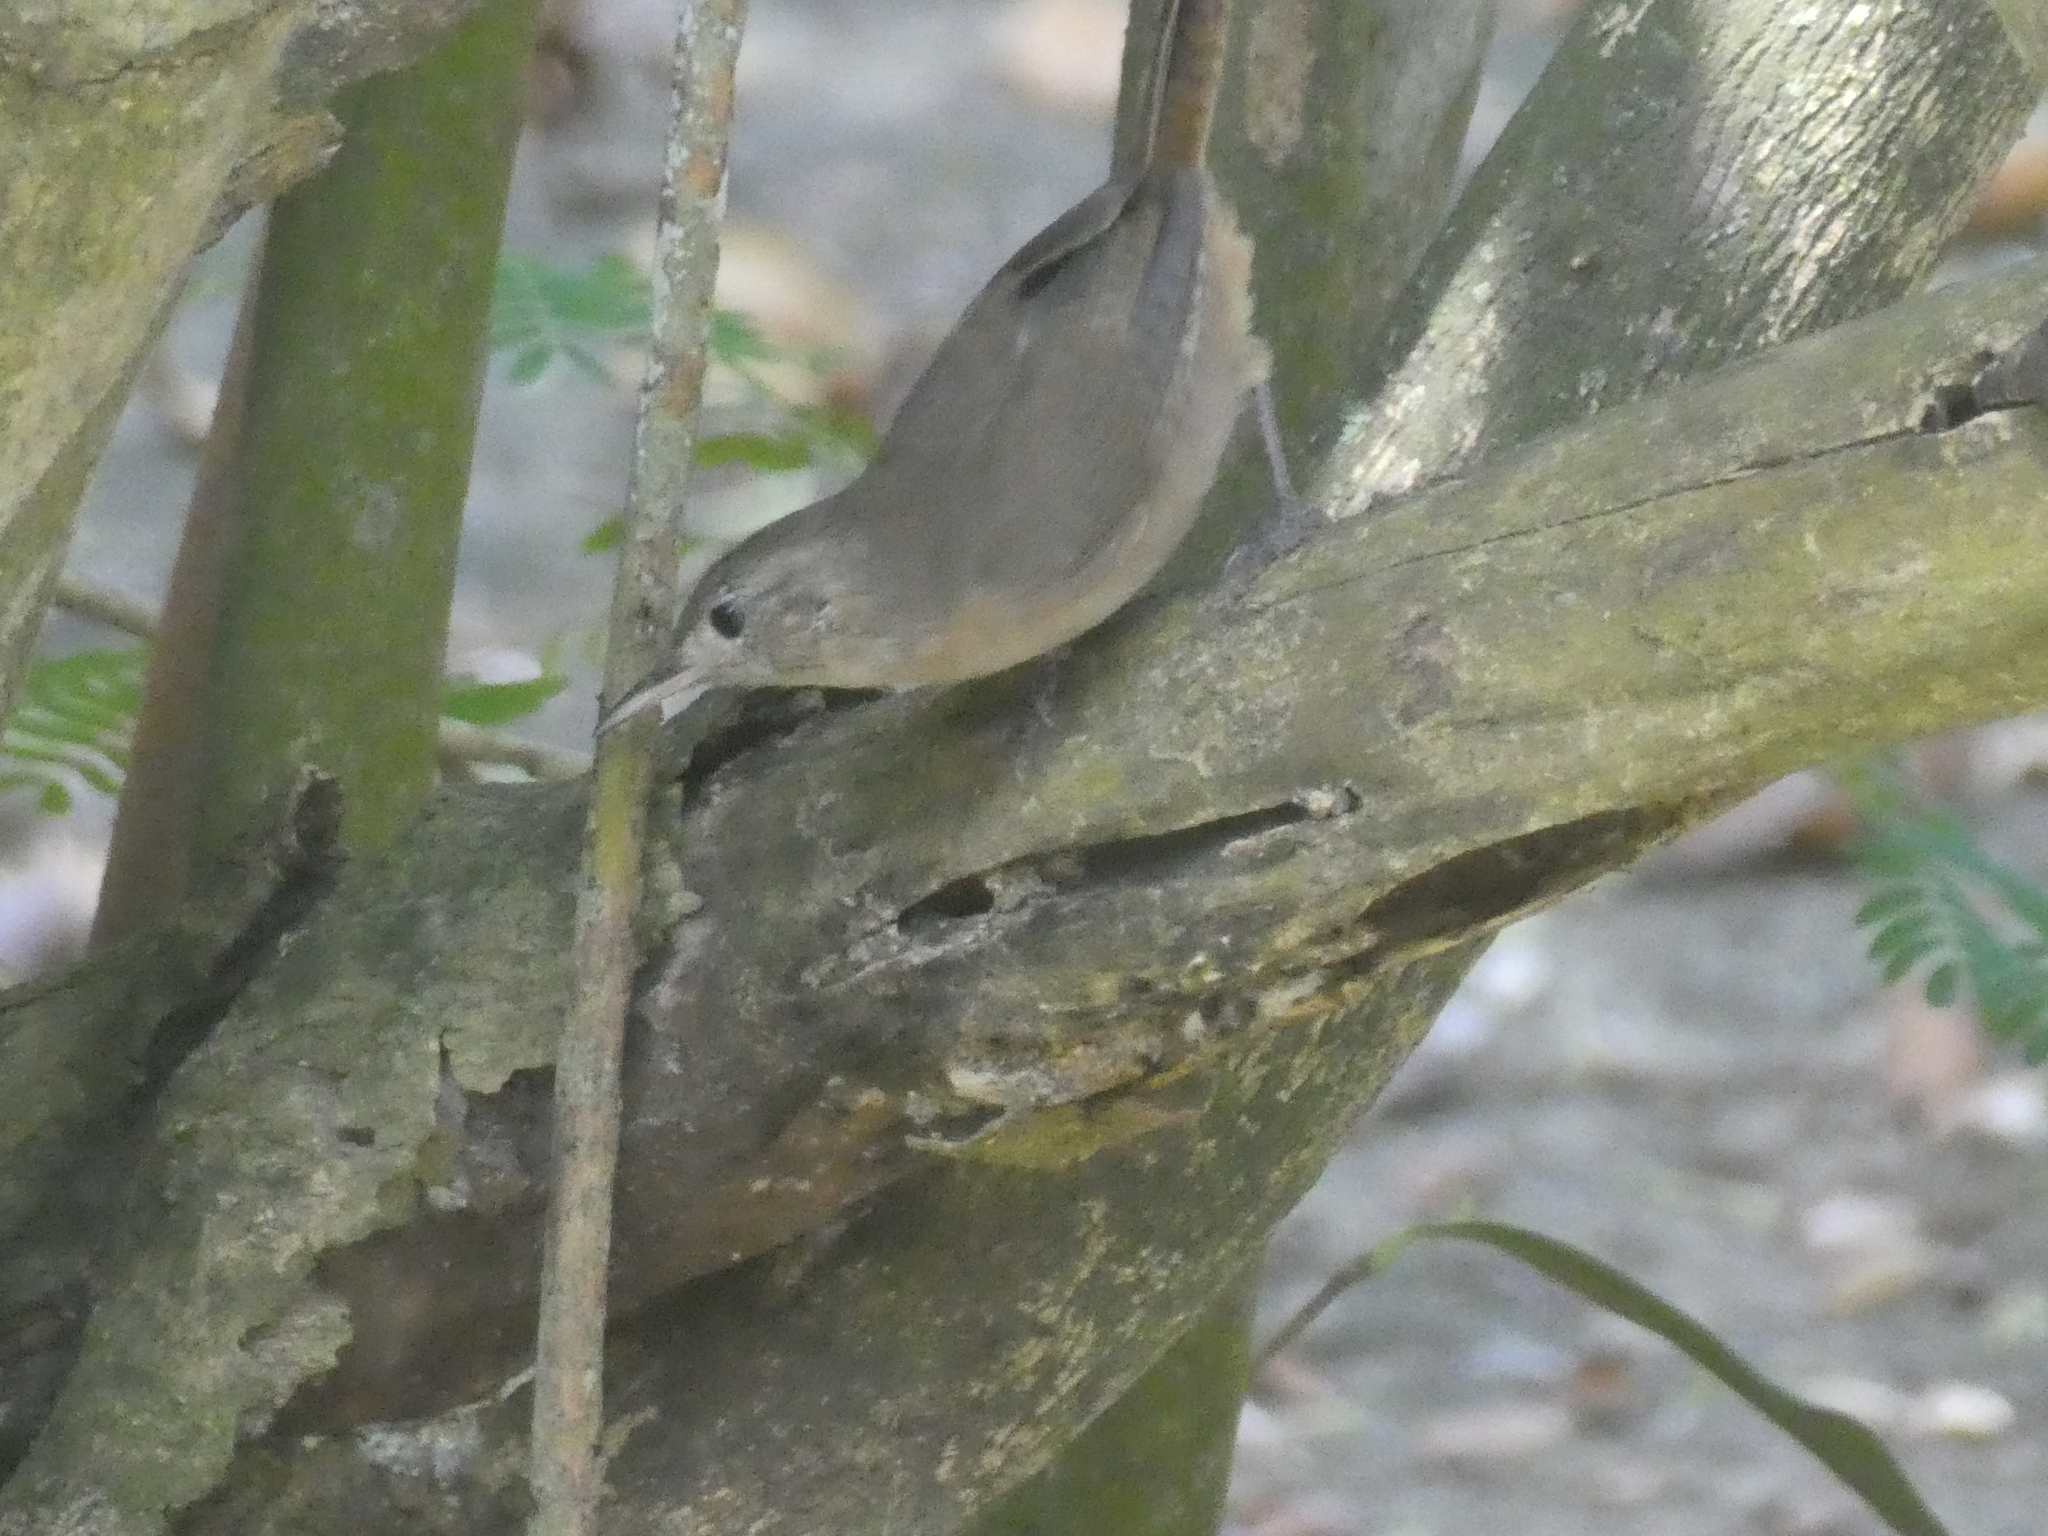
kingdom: Animalia
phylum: Chordata
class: Aves
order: Passeriformes
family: Troglodytidae
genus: Troglodytes
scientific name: Troglodytes aedon
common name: House wren
